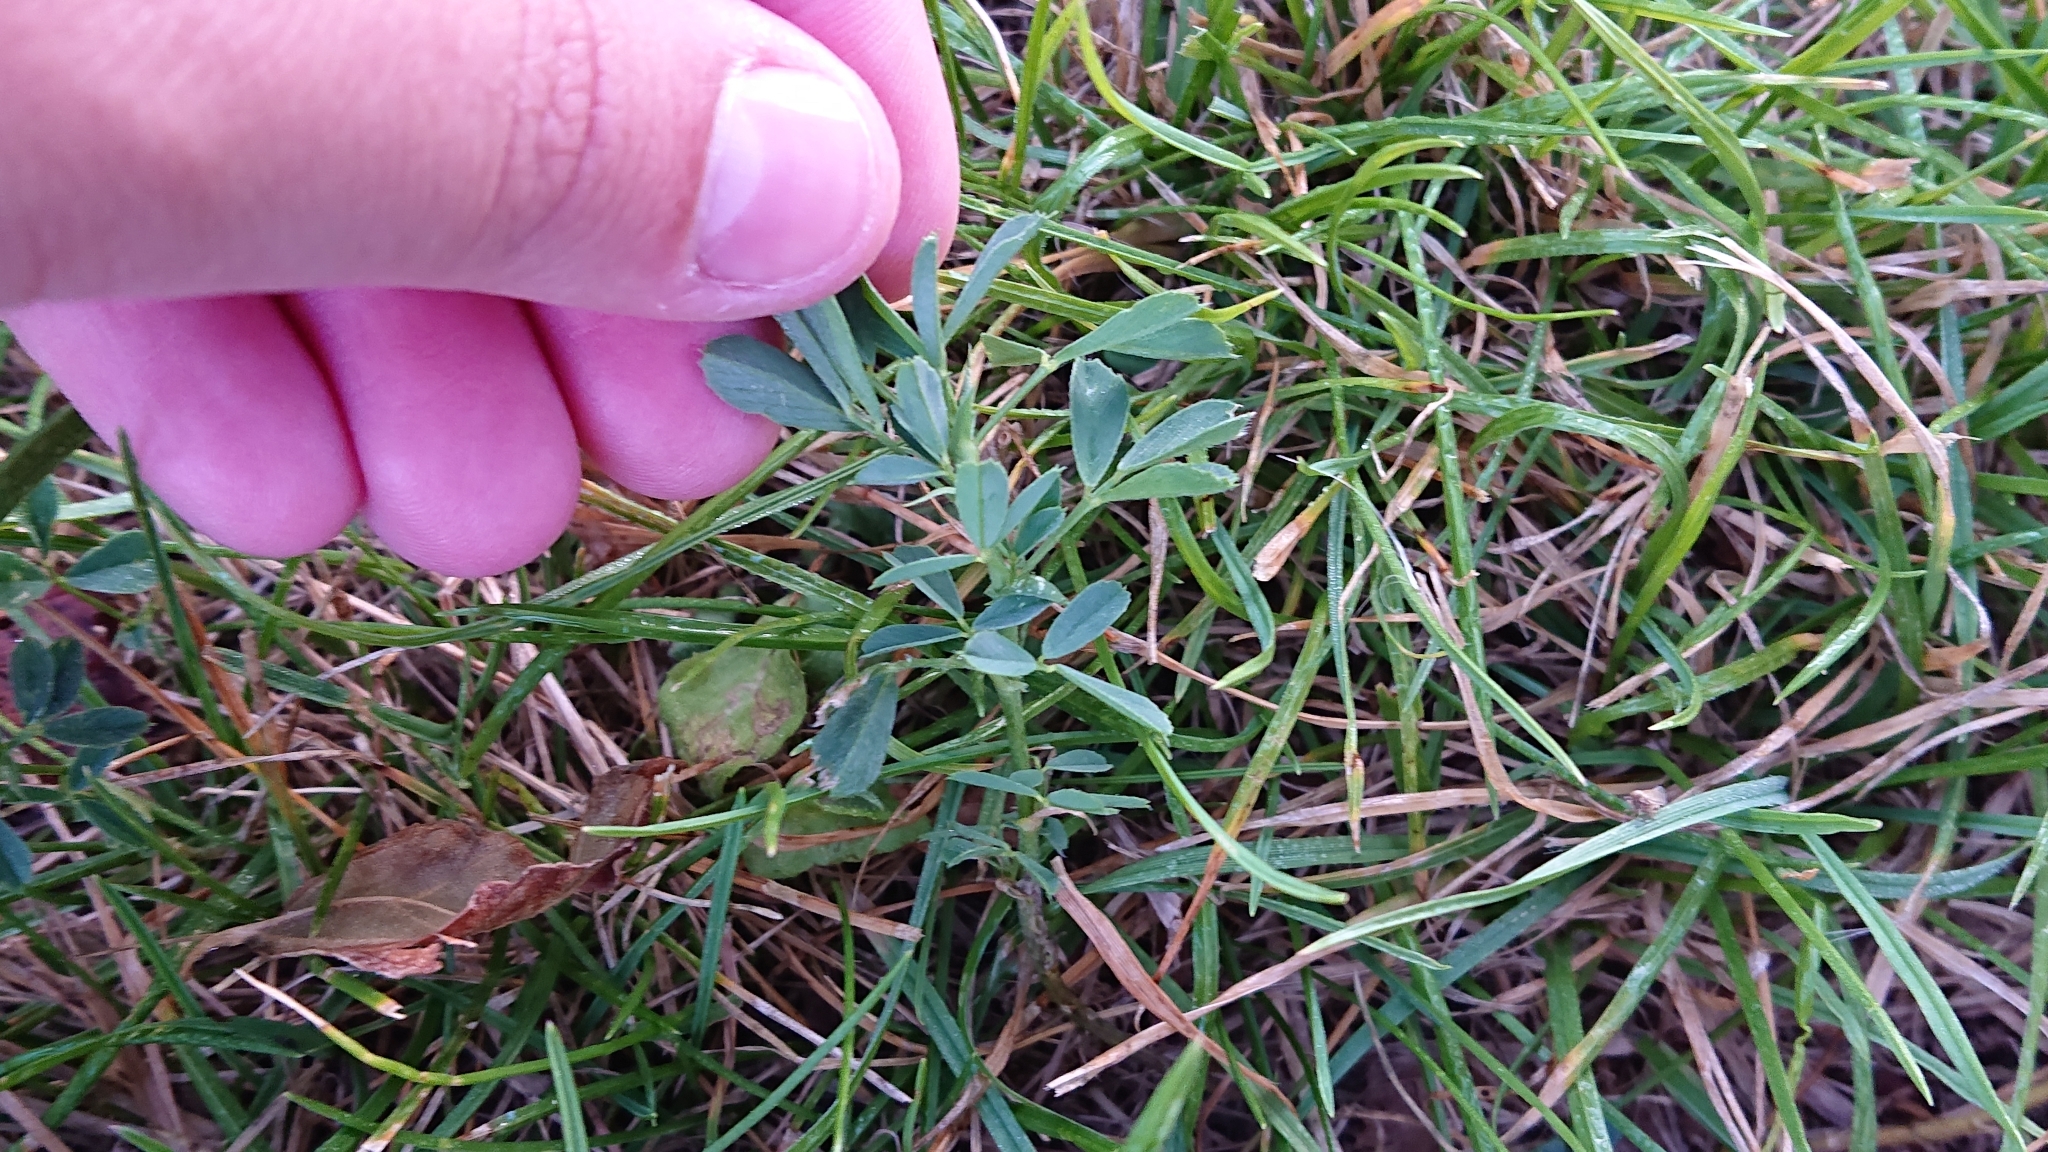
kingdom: Plantae
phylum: Tracheophyta
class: Magnoliopsida
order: Fabales
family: Fabaceae
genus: Medicago
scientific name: Medicago sativa
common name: Alfalfa
